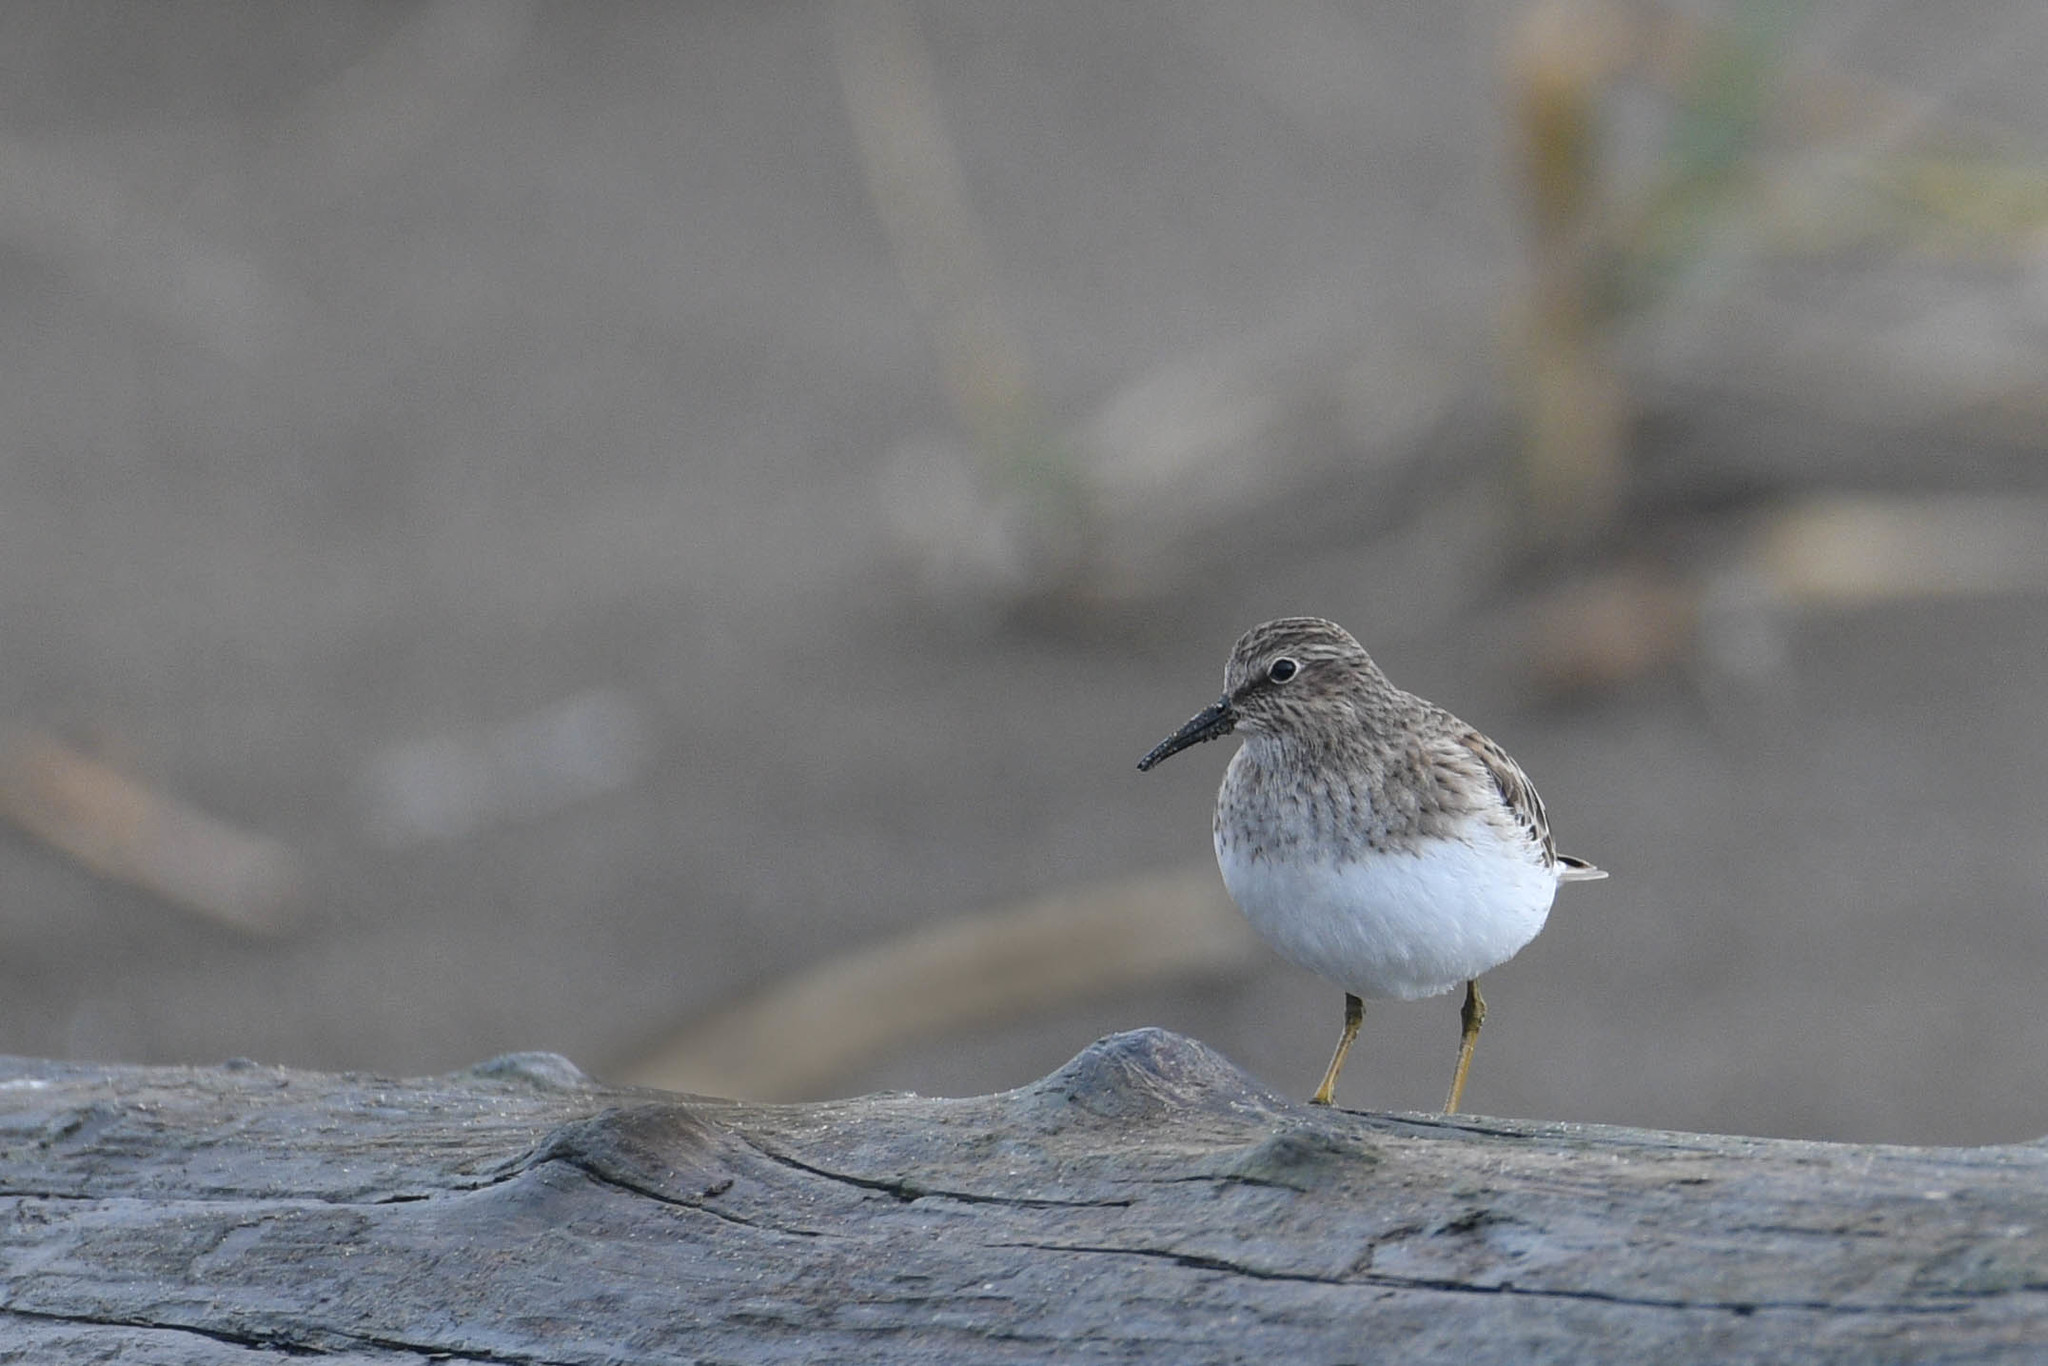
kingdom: Animalia
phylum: Chordata
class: Aves
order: Charadriiformes
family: Scolopacidae
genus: Calidris
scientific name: Calidris minutilla
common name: Least sandpiper
